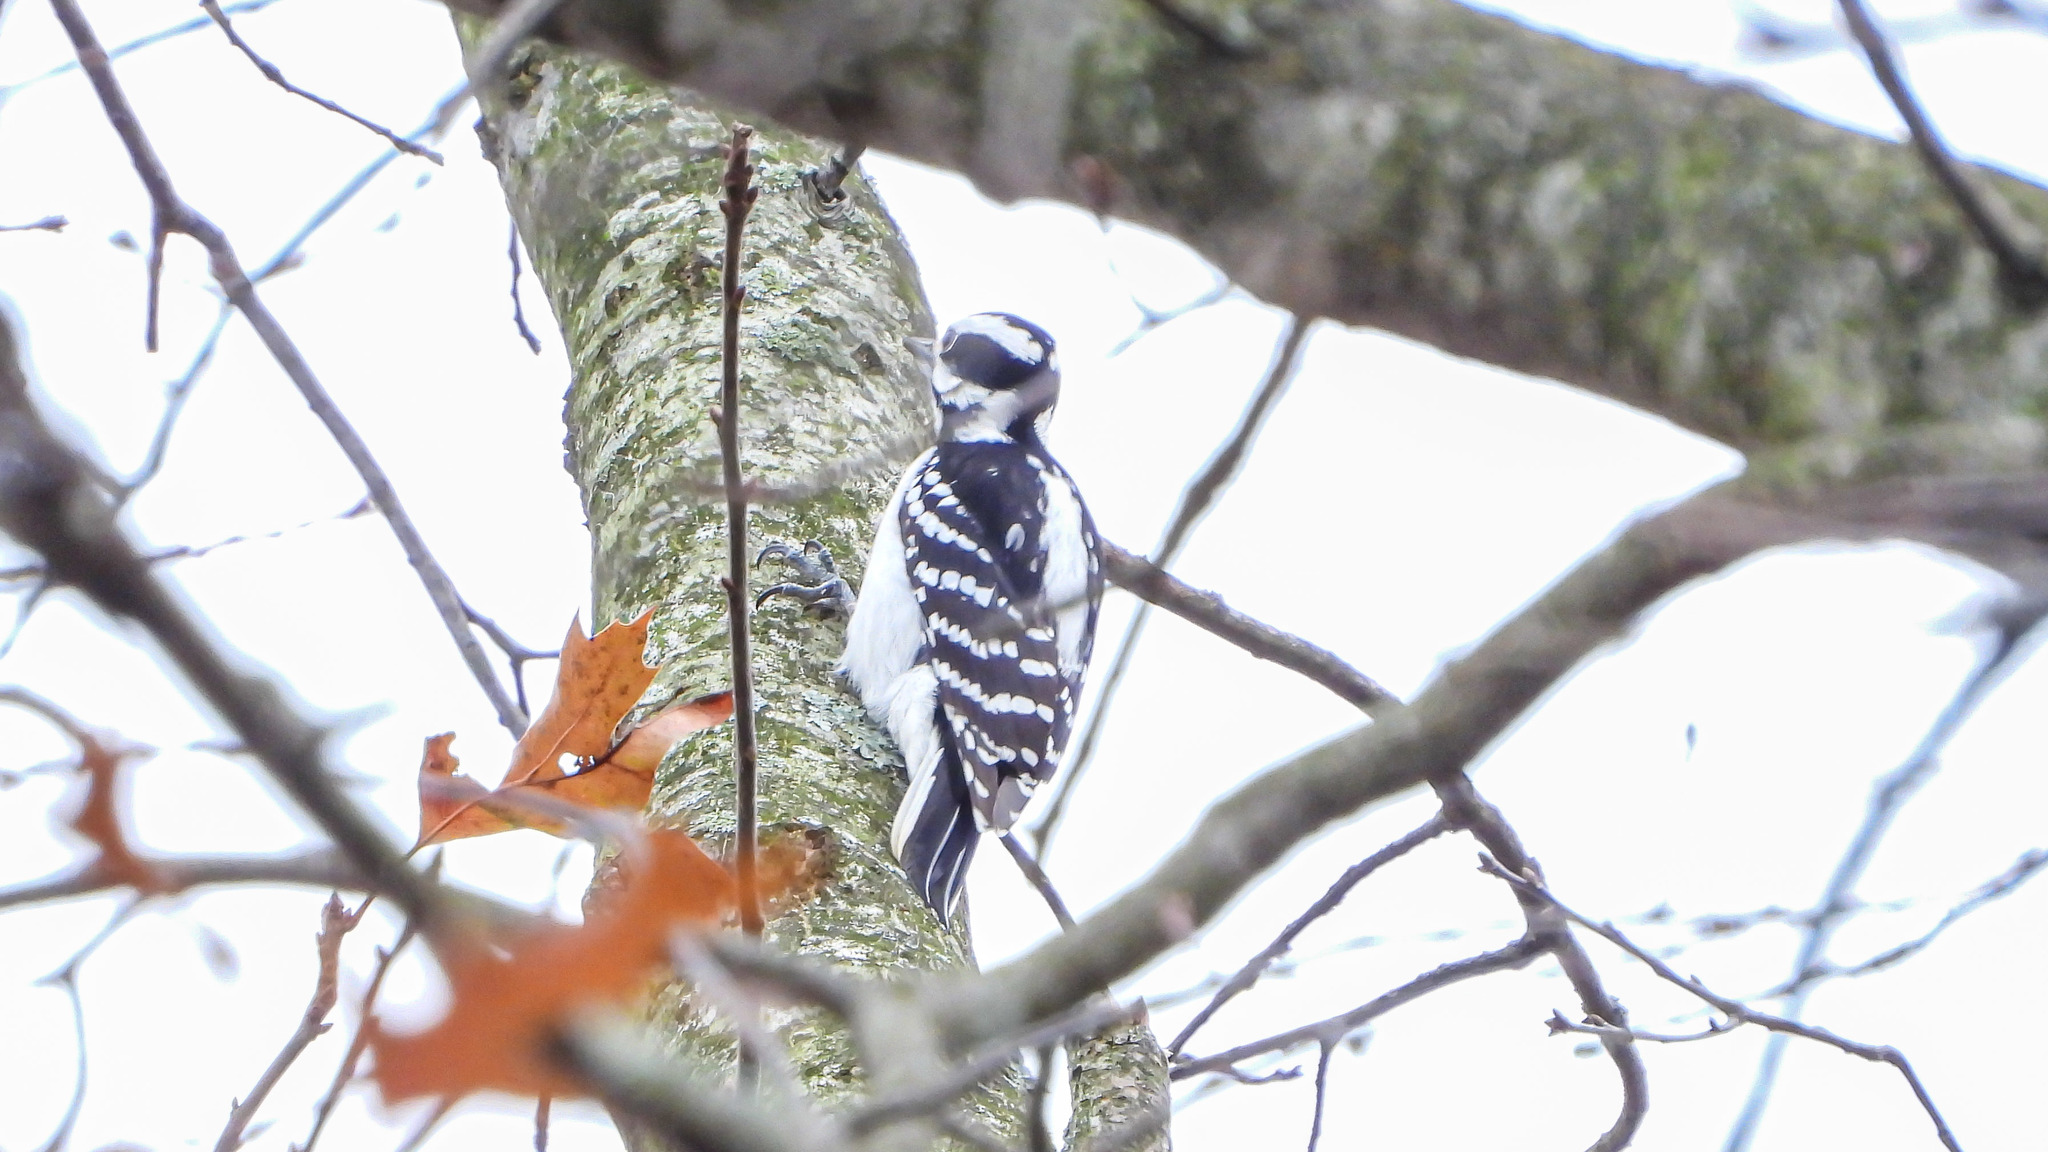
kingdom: Animalia
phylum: Chordata
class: Aves
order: Piciformes
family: Picidae
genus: Leuconotopicus
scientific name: Leuconotopicus villosus
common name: Hairy woodpecker
